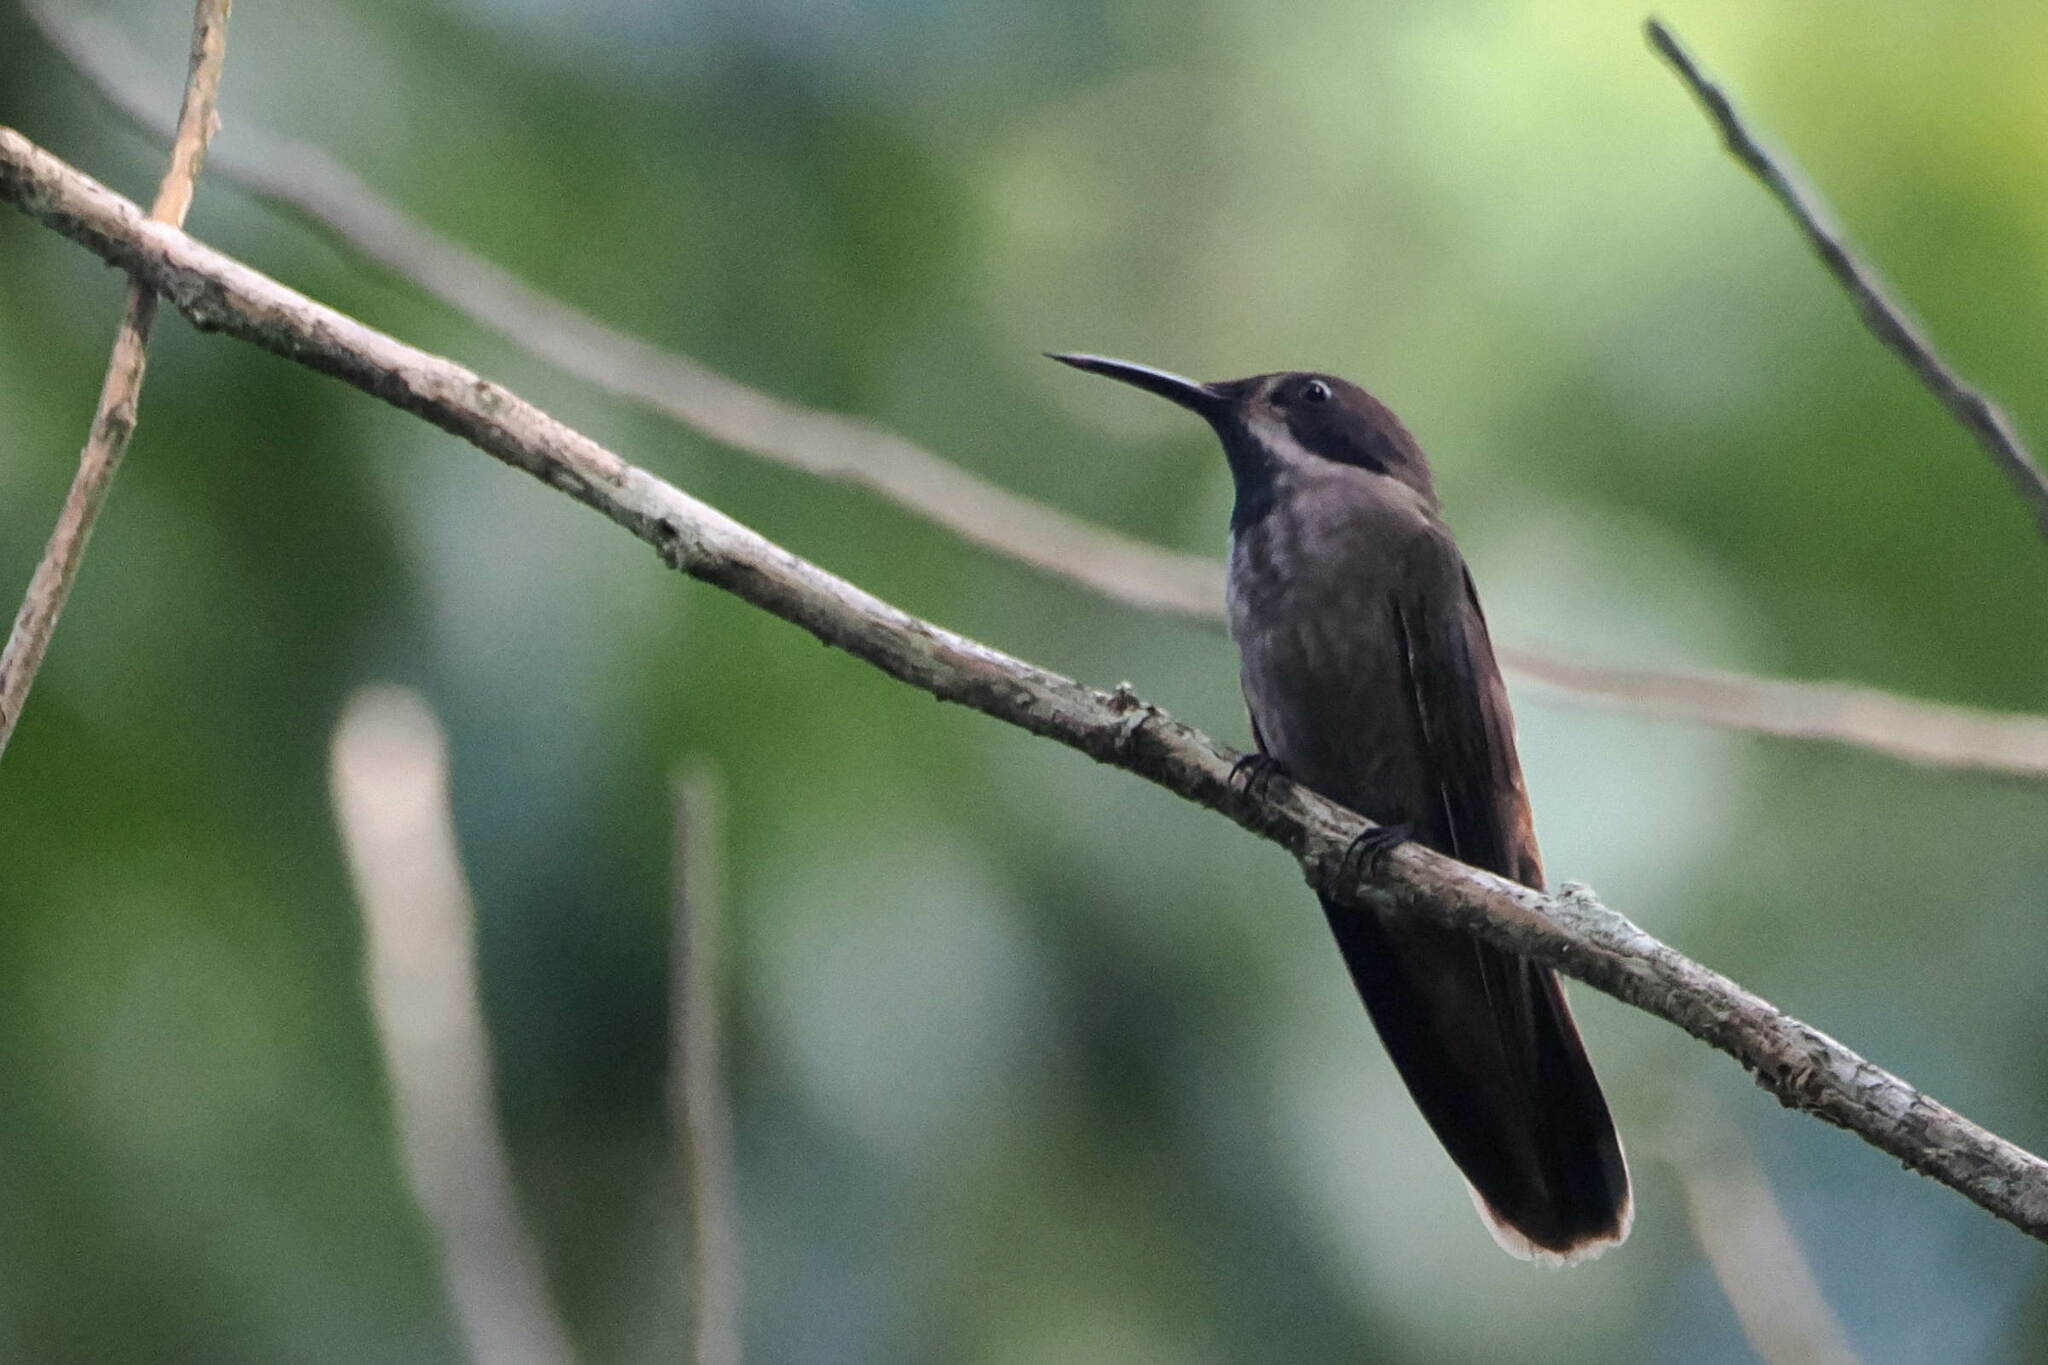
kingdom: Animalia
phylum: Chordata
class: Aves
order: Apodiformes
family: Trochilidae
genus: Colibri
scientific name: Colibri delphinae
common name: Brown violetear
